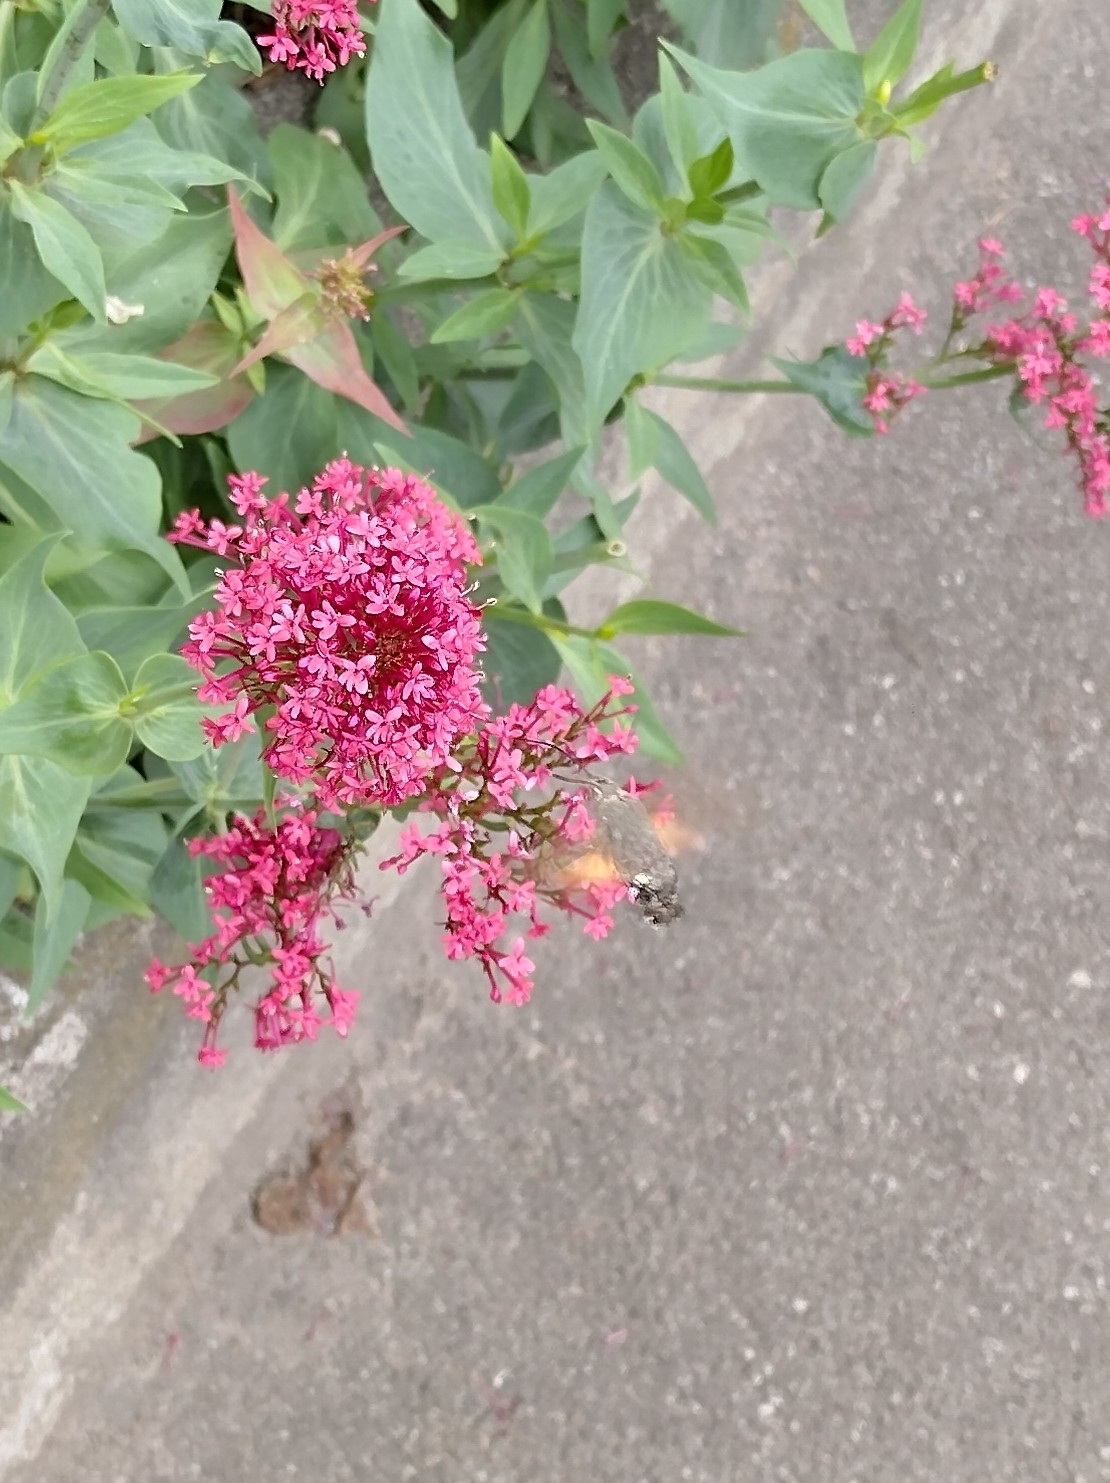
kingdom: Animalia
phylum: Arthropoda
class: Insecta
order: Lepidoptera
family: Sphingidae
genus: Macroglossum
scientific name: Macroglossum stellatarum
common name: Humming-bird hawk-moth
